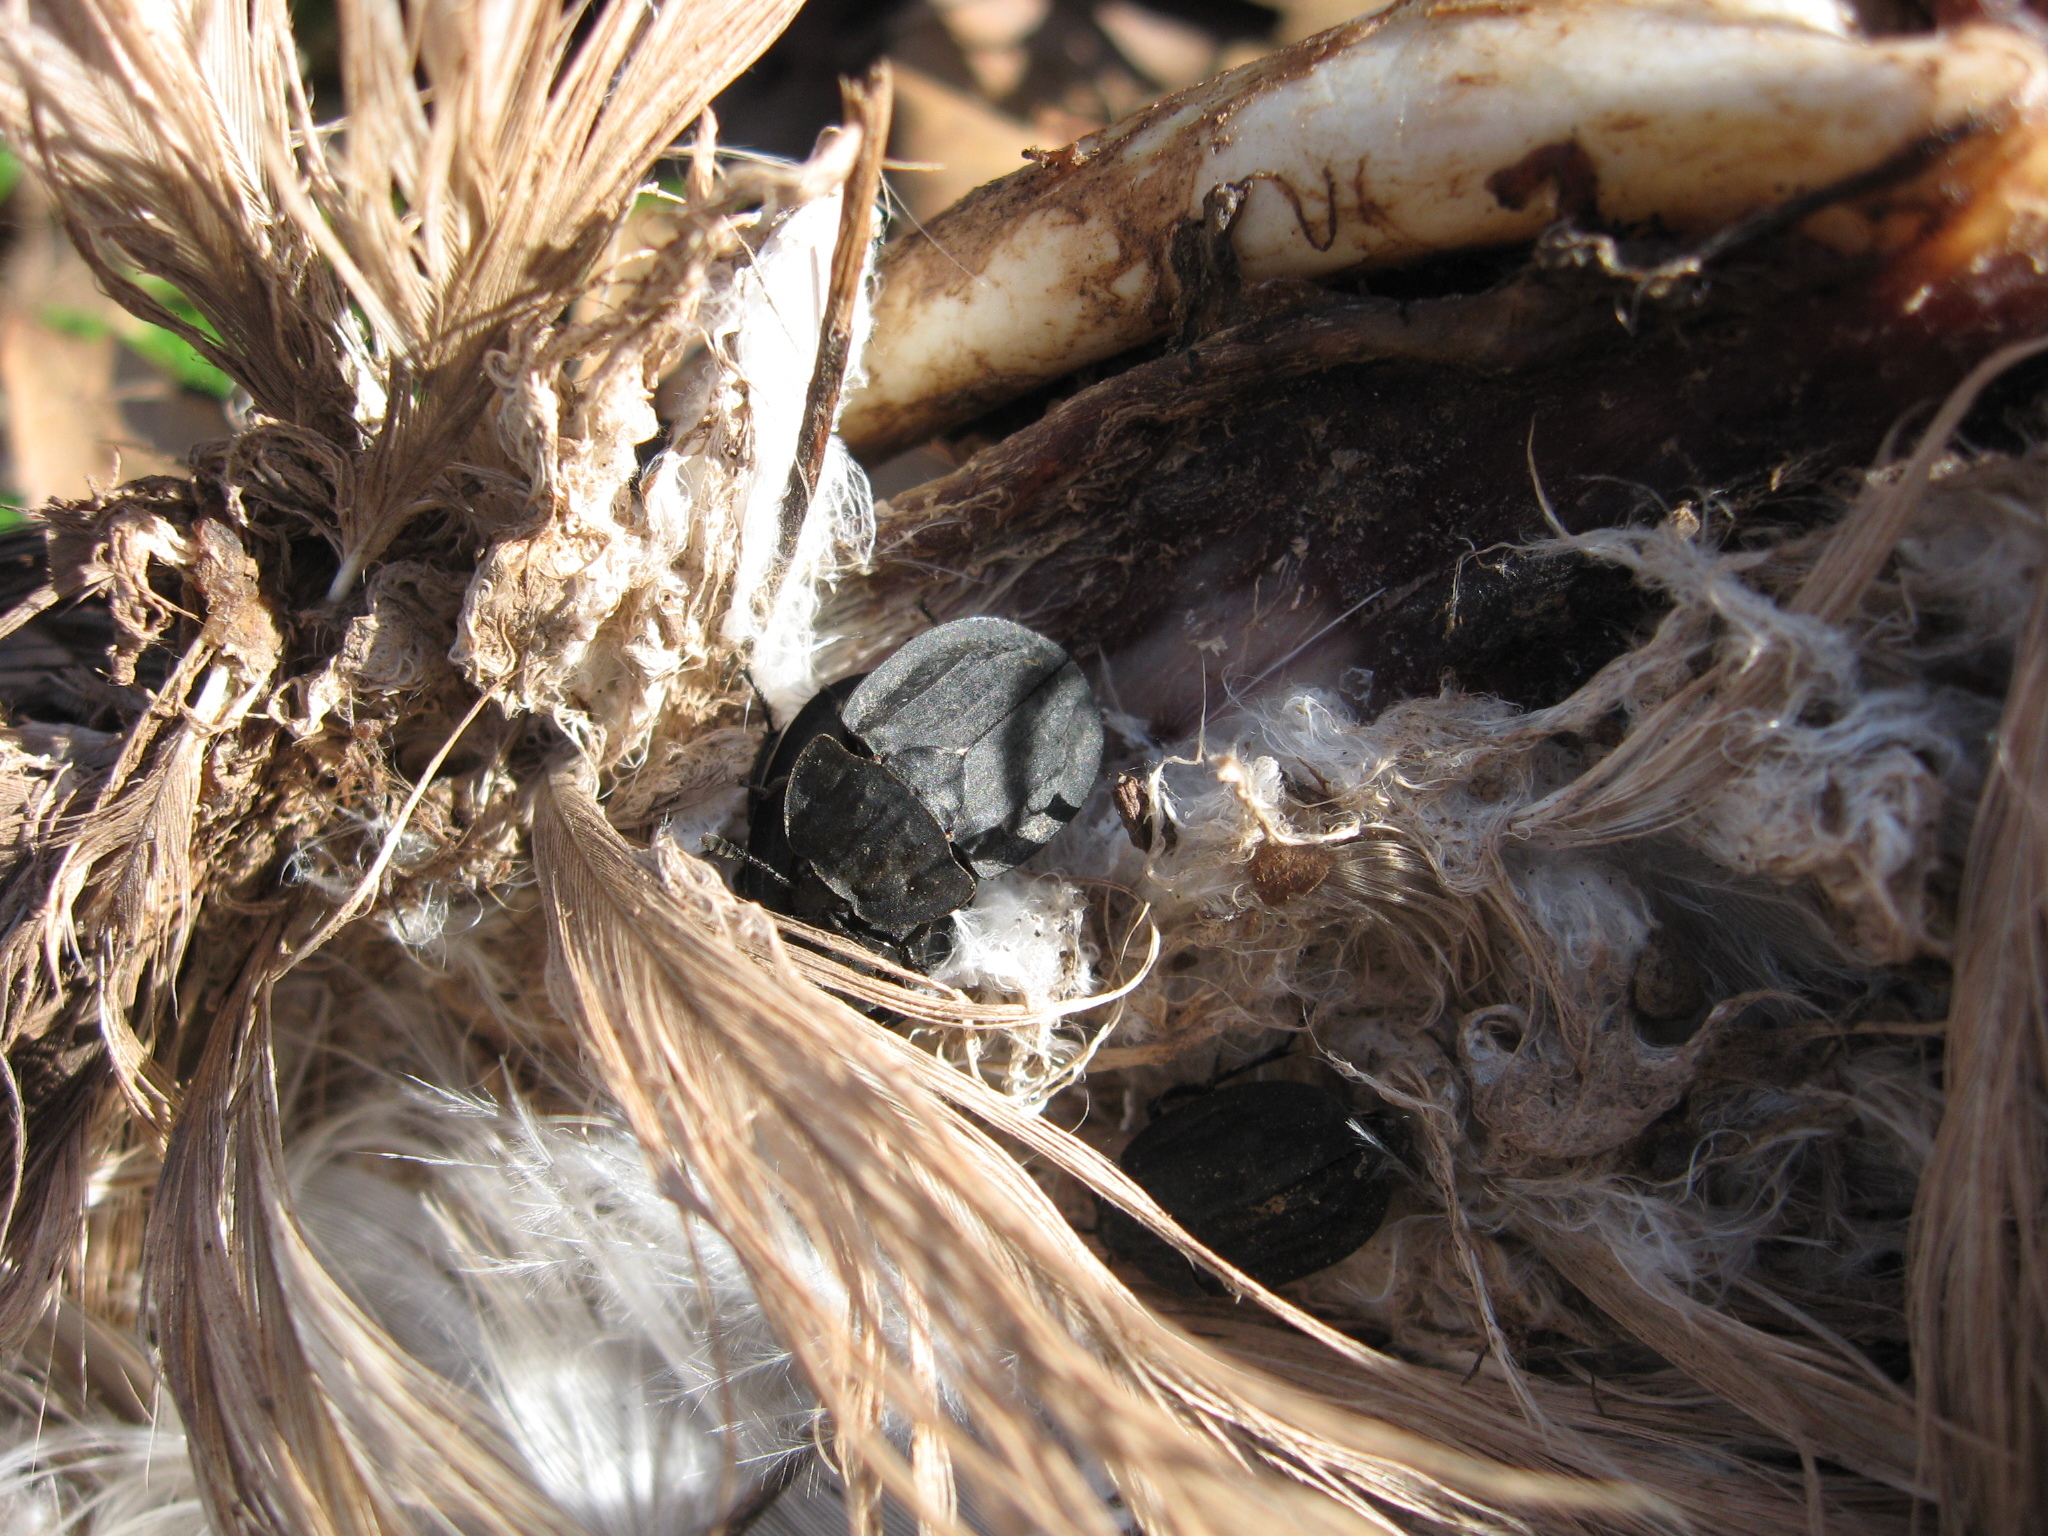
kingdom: Animalia
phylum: Arthropoda
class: Insecta
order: Coleoptera
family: Staphylinidae
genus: Oiceoptoma
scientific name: Oiceoptoma inaequale
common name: Ridged carrion beetle
